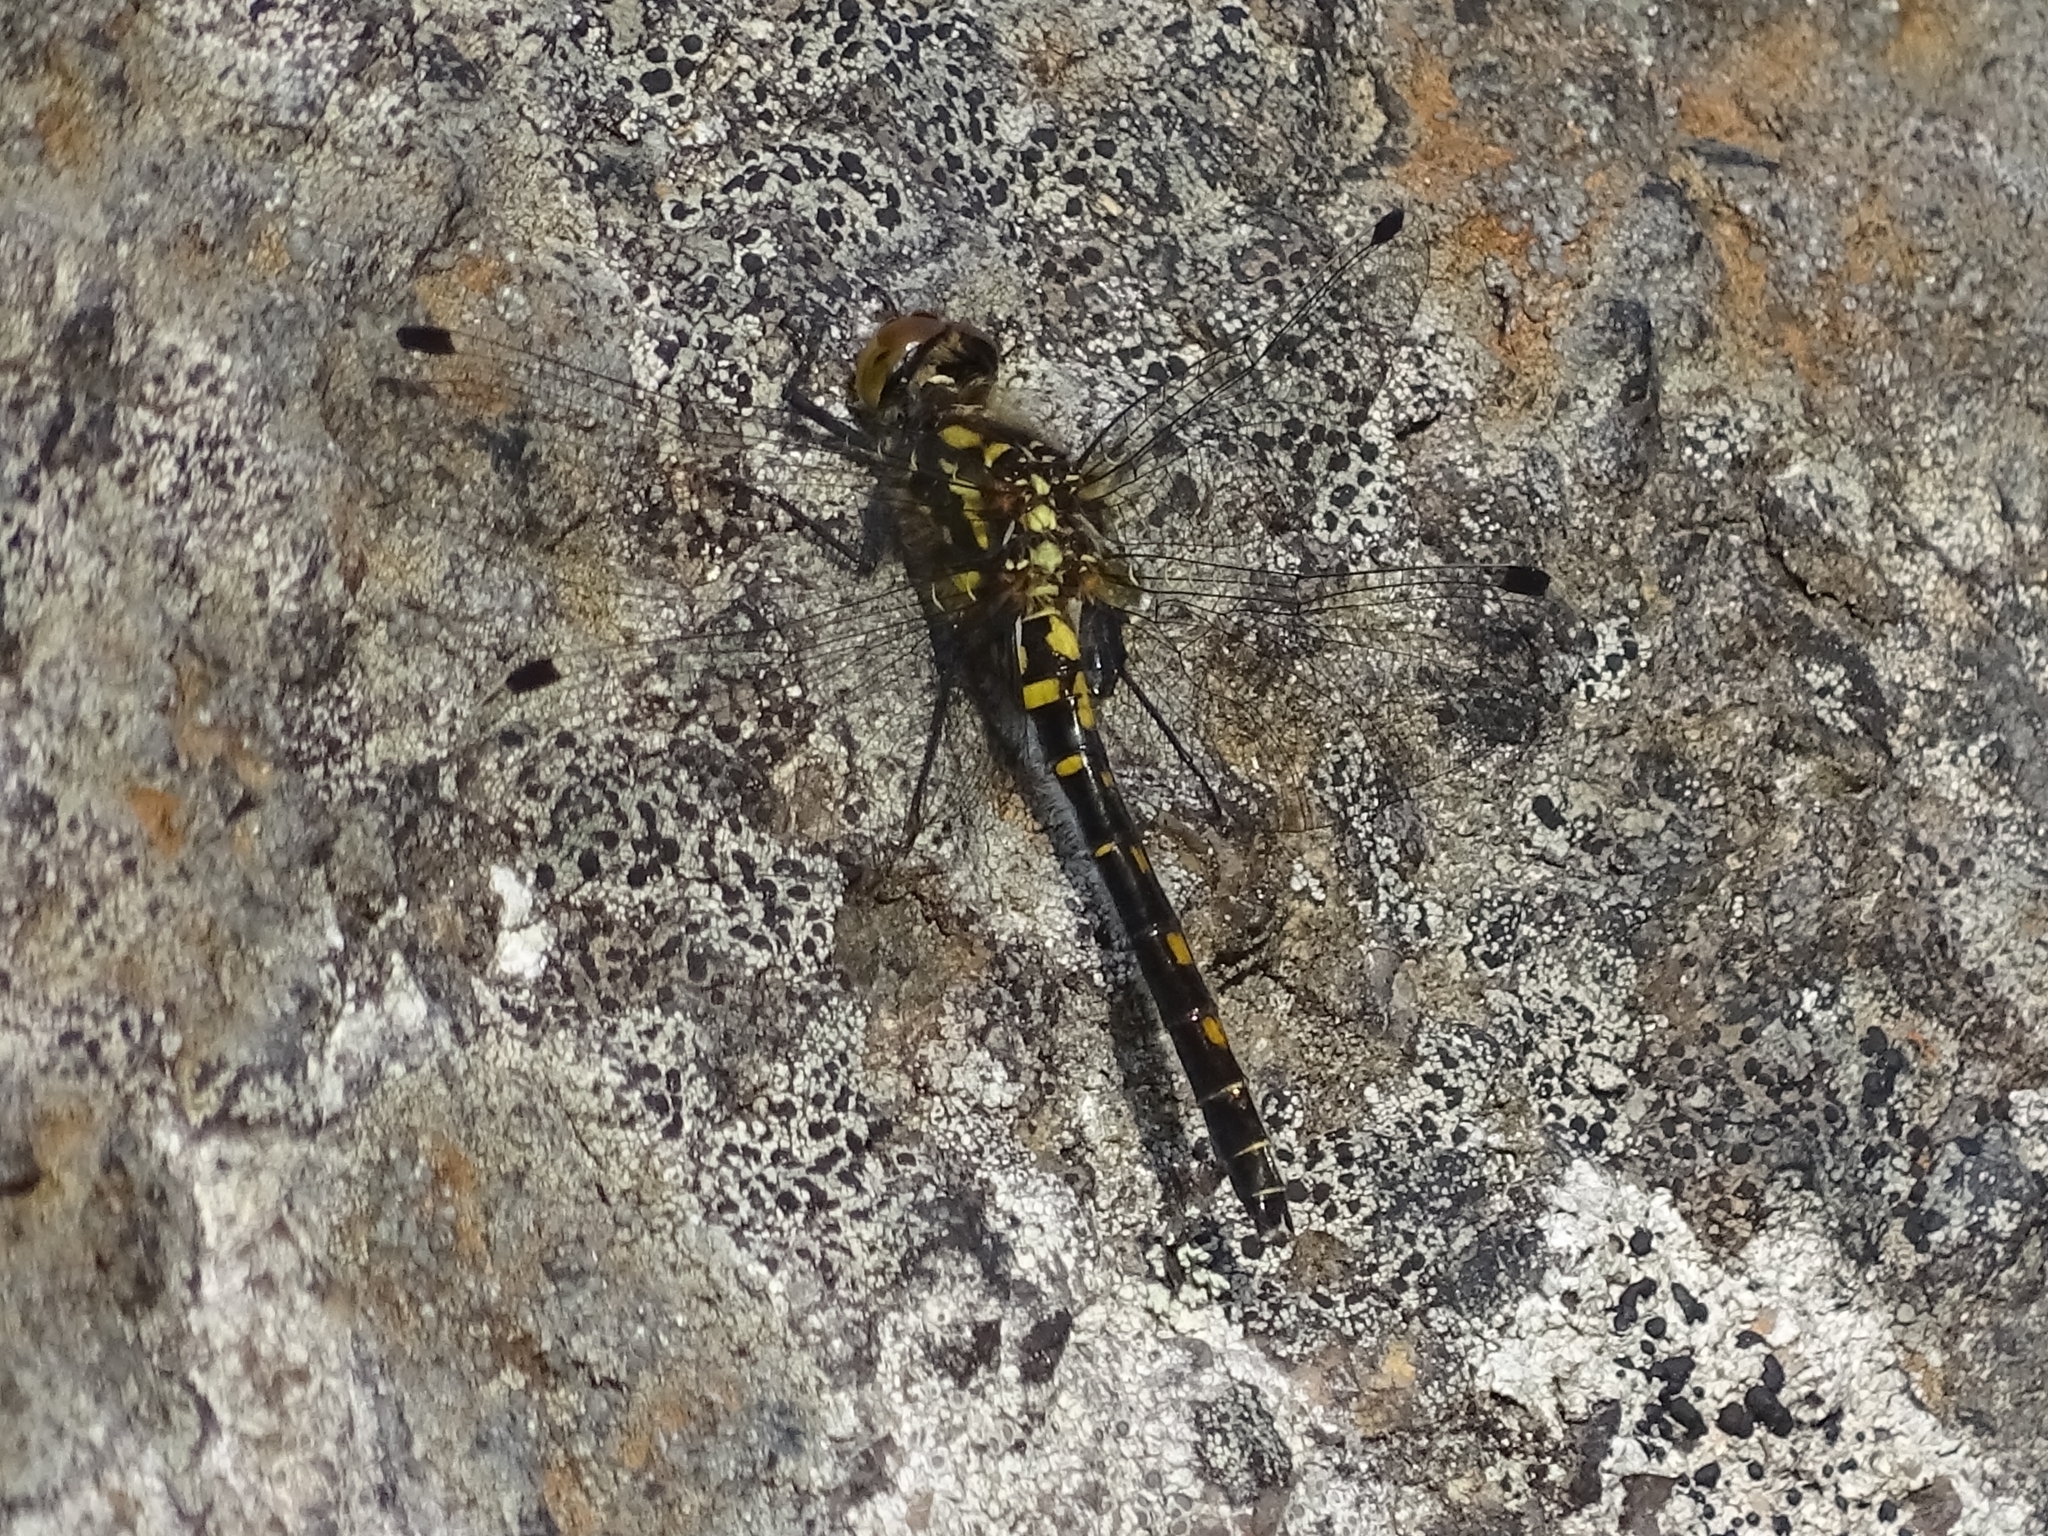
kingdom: Animalia
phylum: Arthropoda
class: Insecta
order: Odonata
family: Libellulidae
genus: Leucorrhinia
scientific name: Leucorrhinia dubia
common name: White-faced darter
